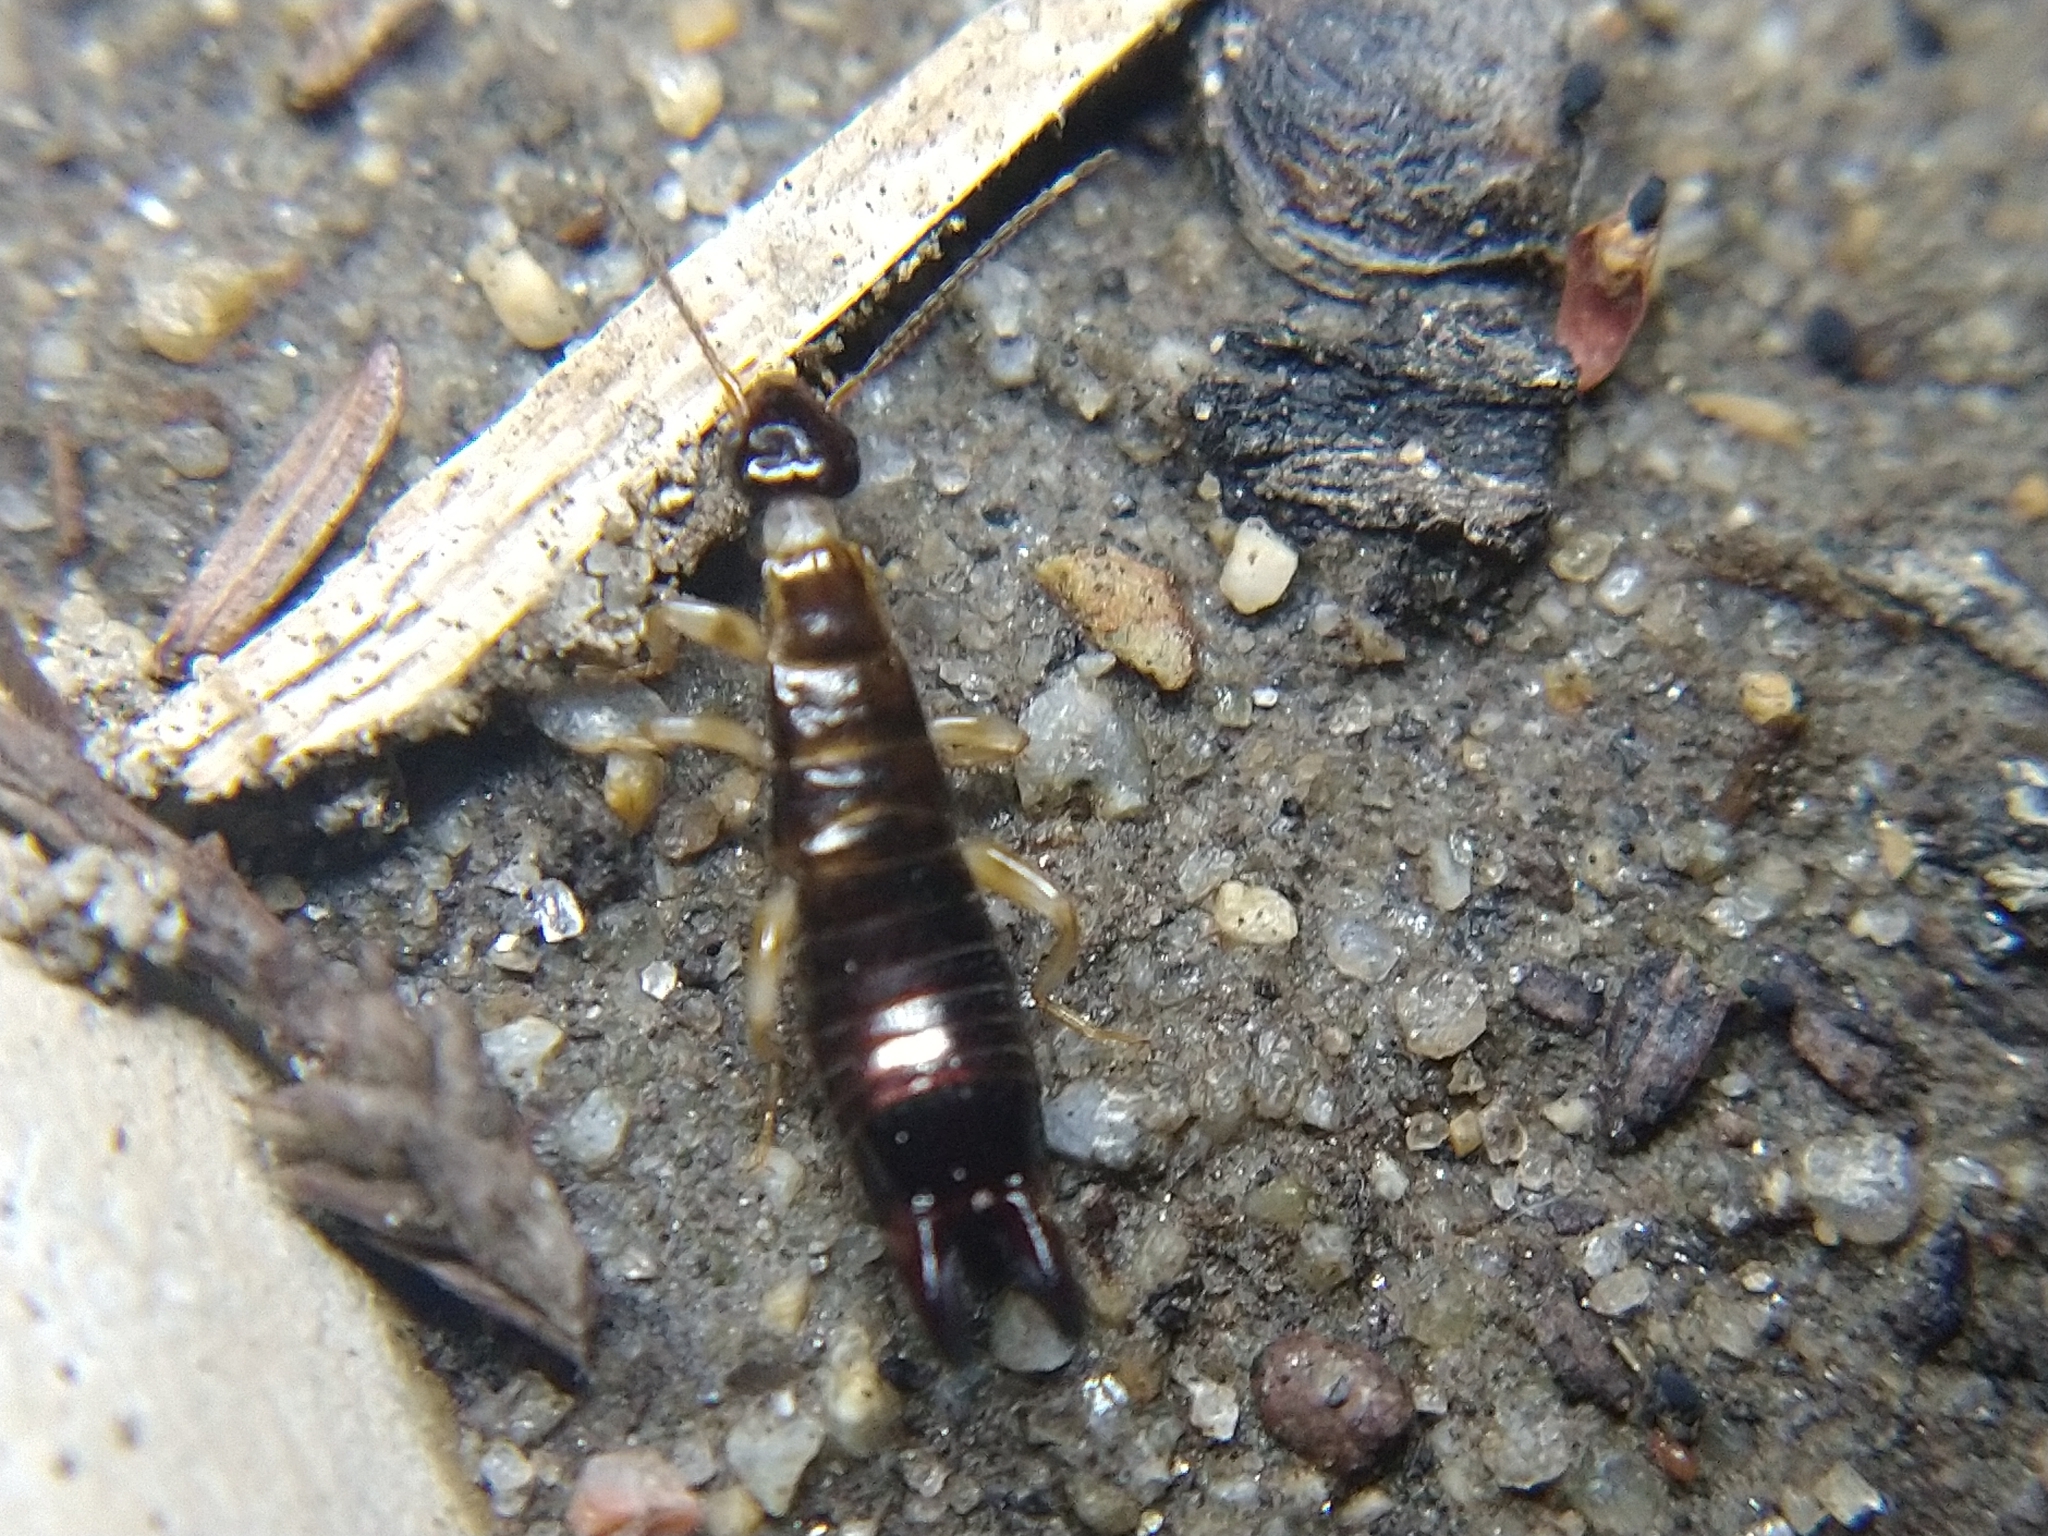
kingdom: Animalia
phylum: Arthropoda
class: Insecta
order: Dermaptera
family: Anisolabididae
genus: Euborellia
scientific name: Euborellia annulipes
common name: Ringlegged earwig
